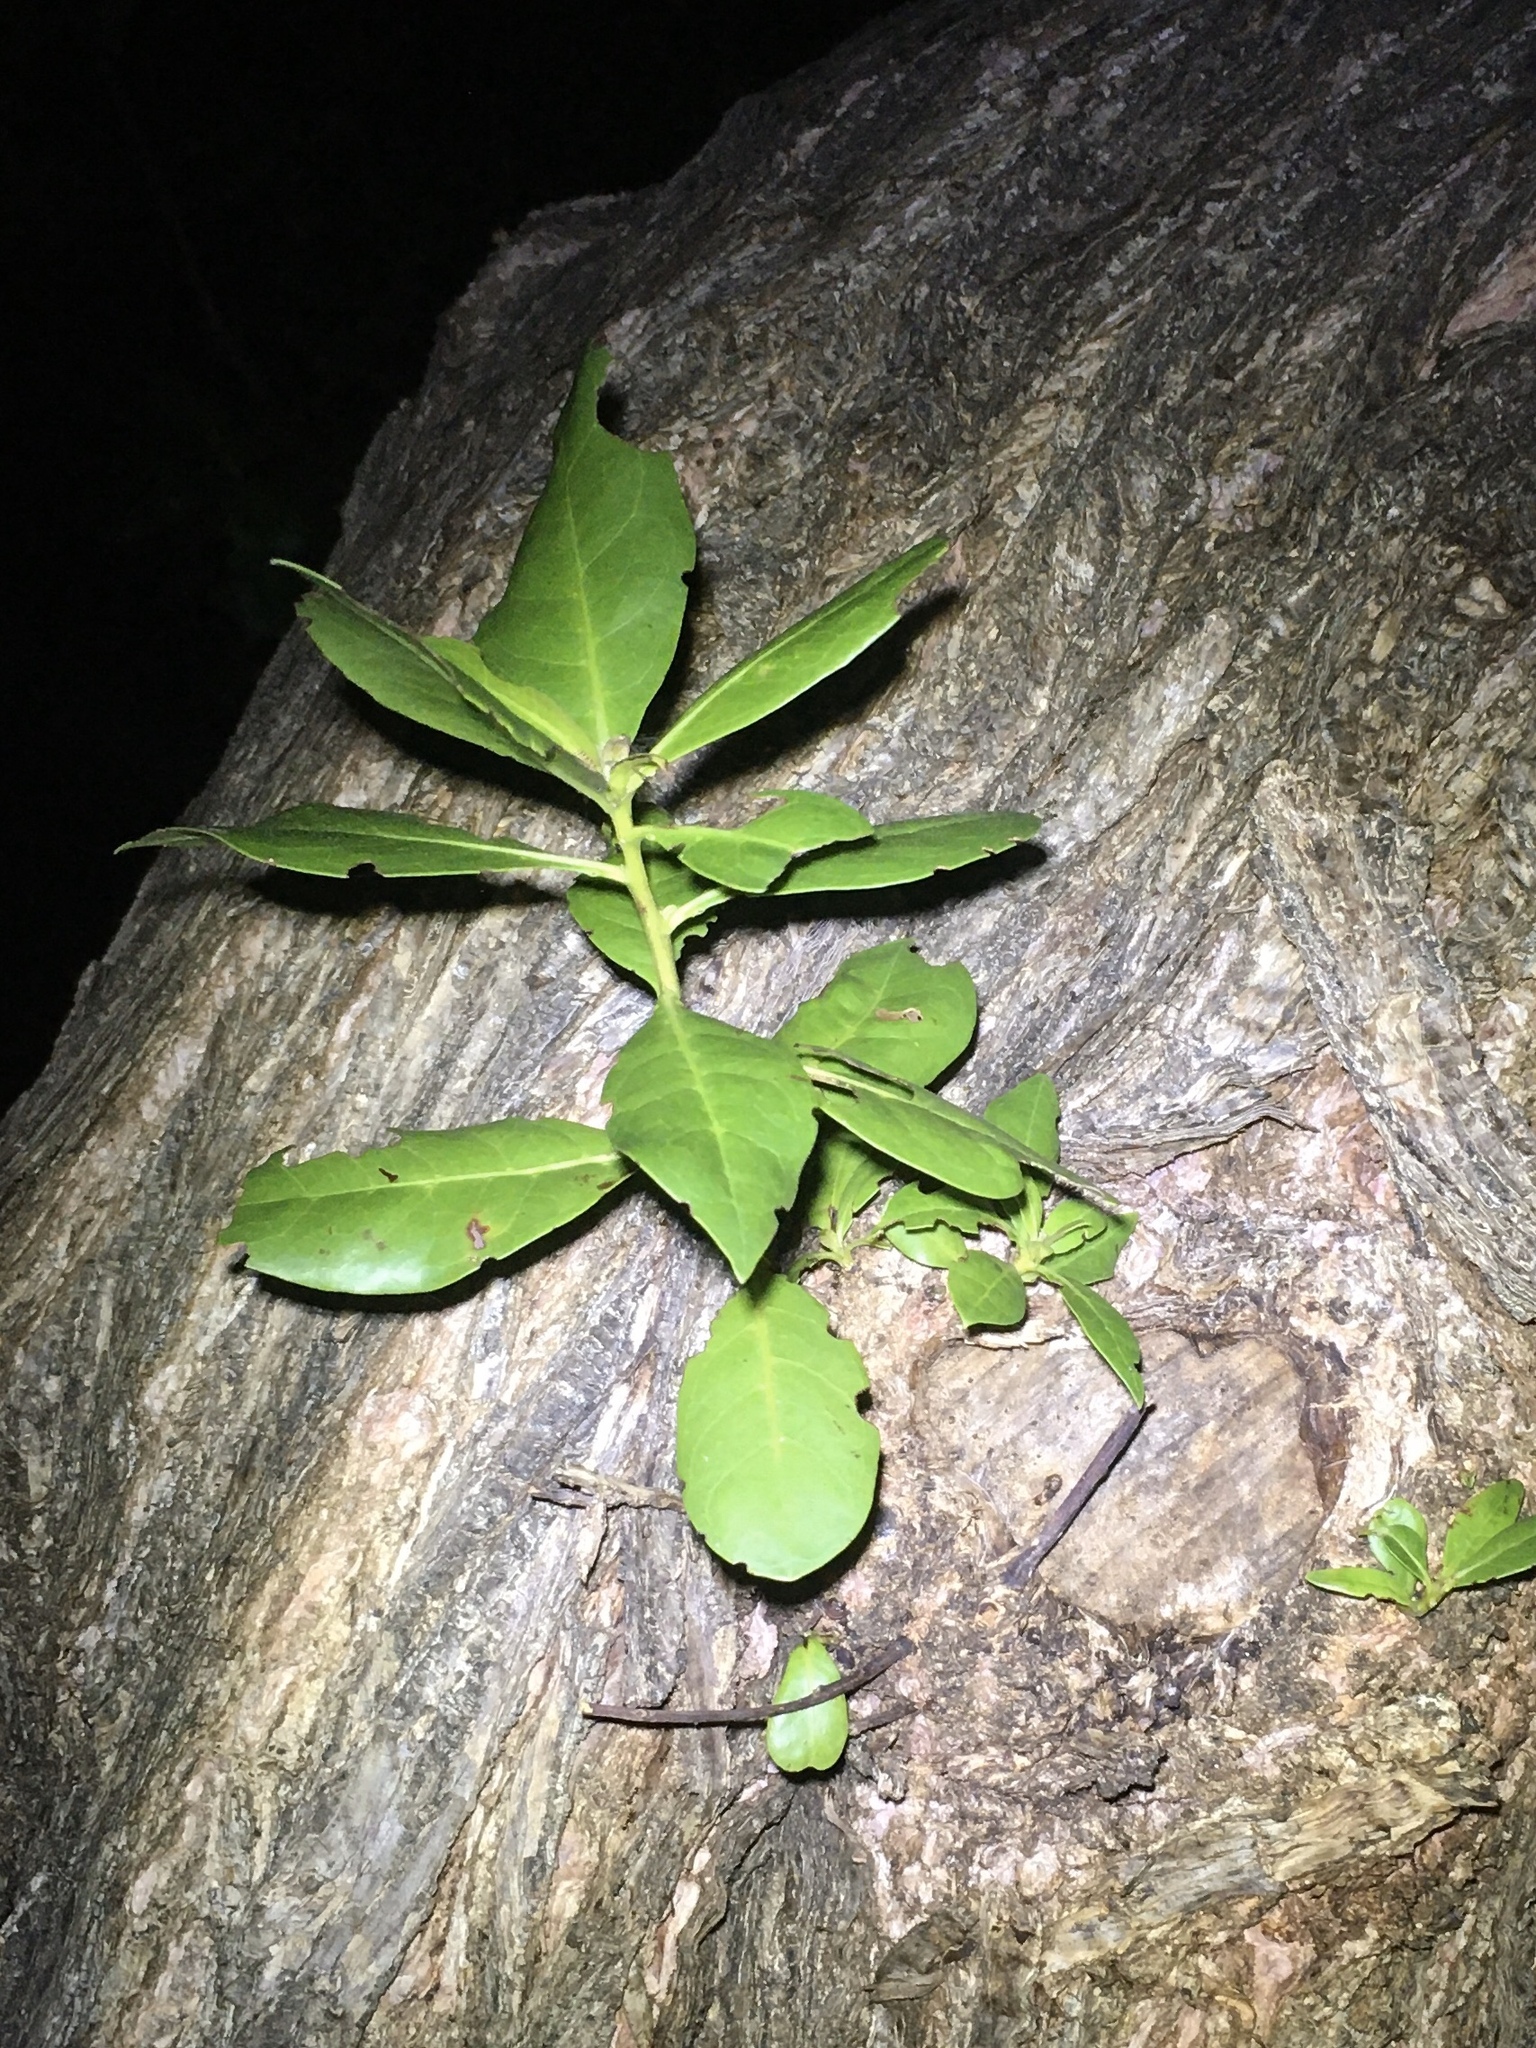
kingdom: Plantae
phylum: Tracheophyta
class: Magnoliopsida
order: Myrtales
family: Combretaceae
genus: Conocarpus
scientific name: Conocarpus erectus
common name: Button mangrove
